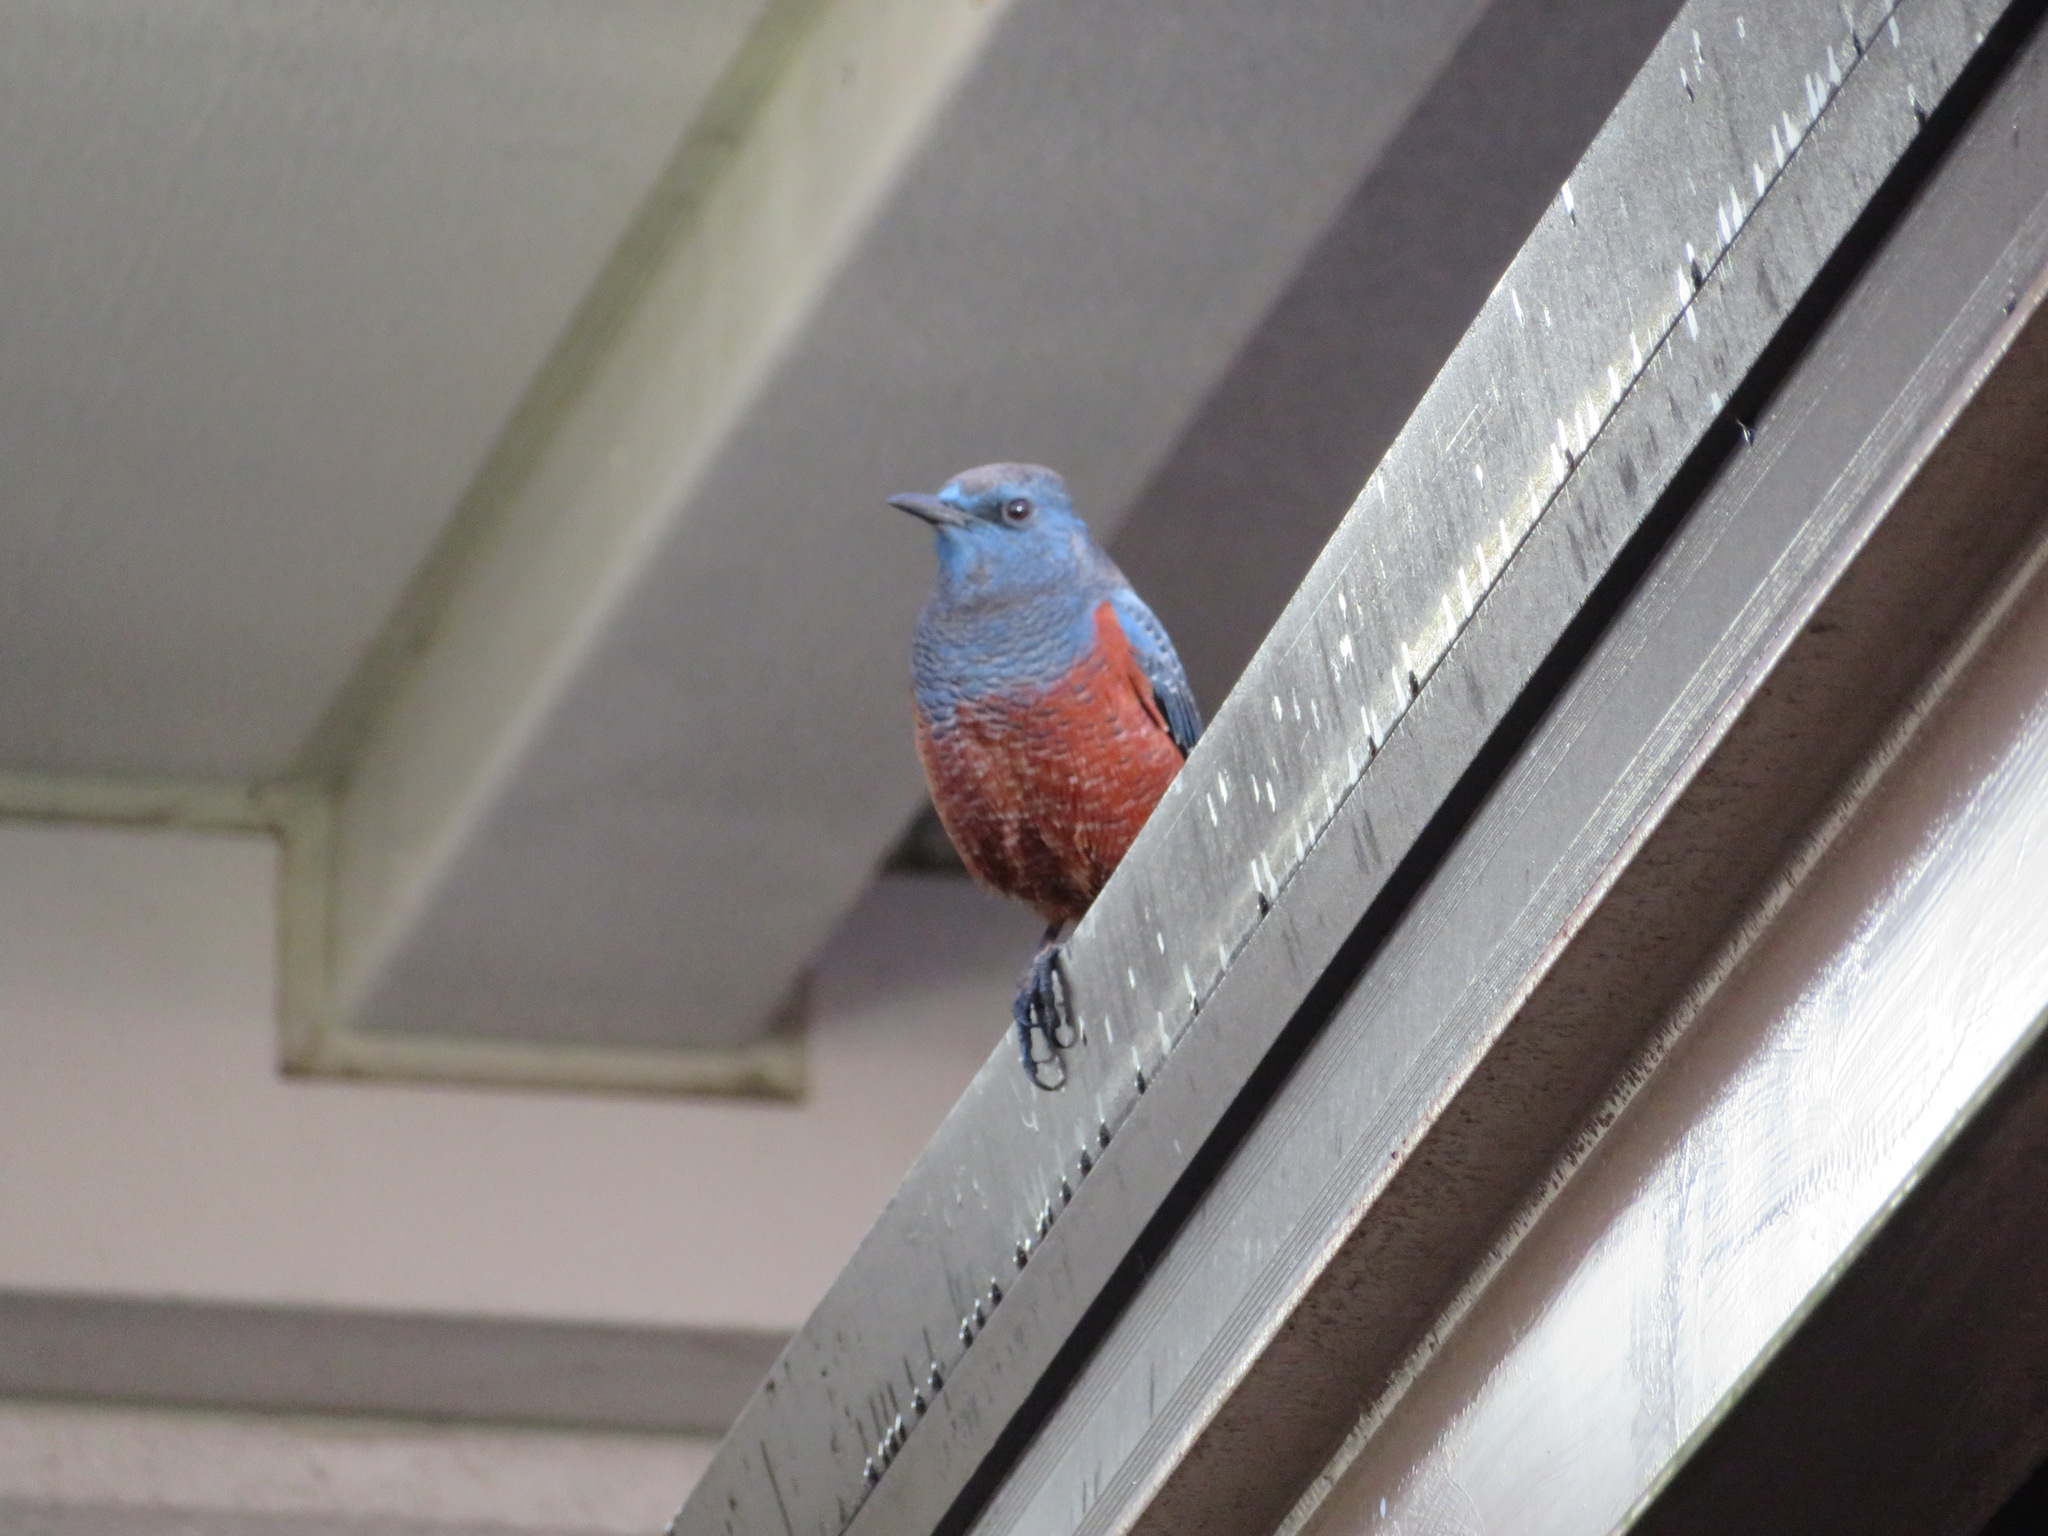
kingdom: Animalia
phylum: Chordata
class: Aves
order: Passeriformes
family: Muscicapidae
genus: Monticola
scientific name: Monticola solitarius
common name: Blue rock thrush
